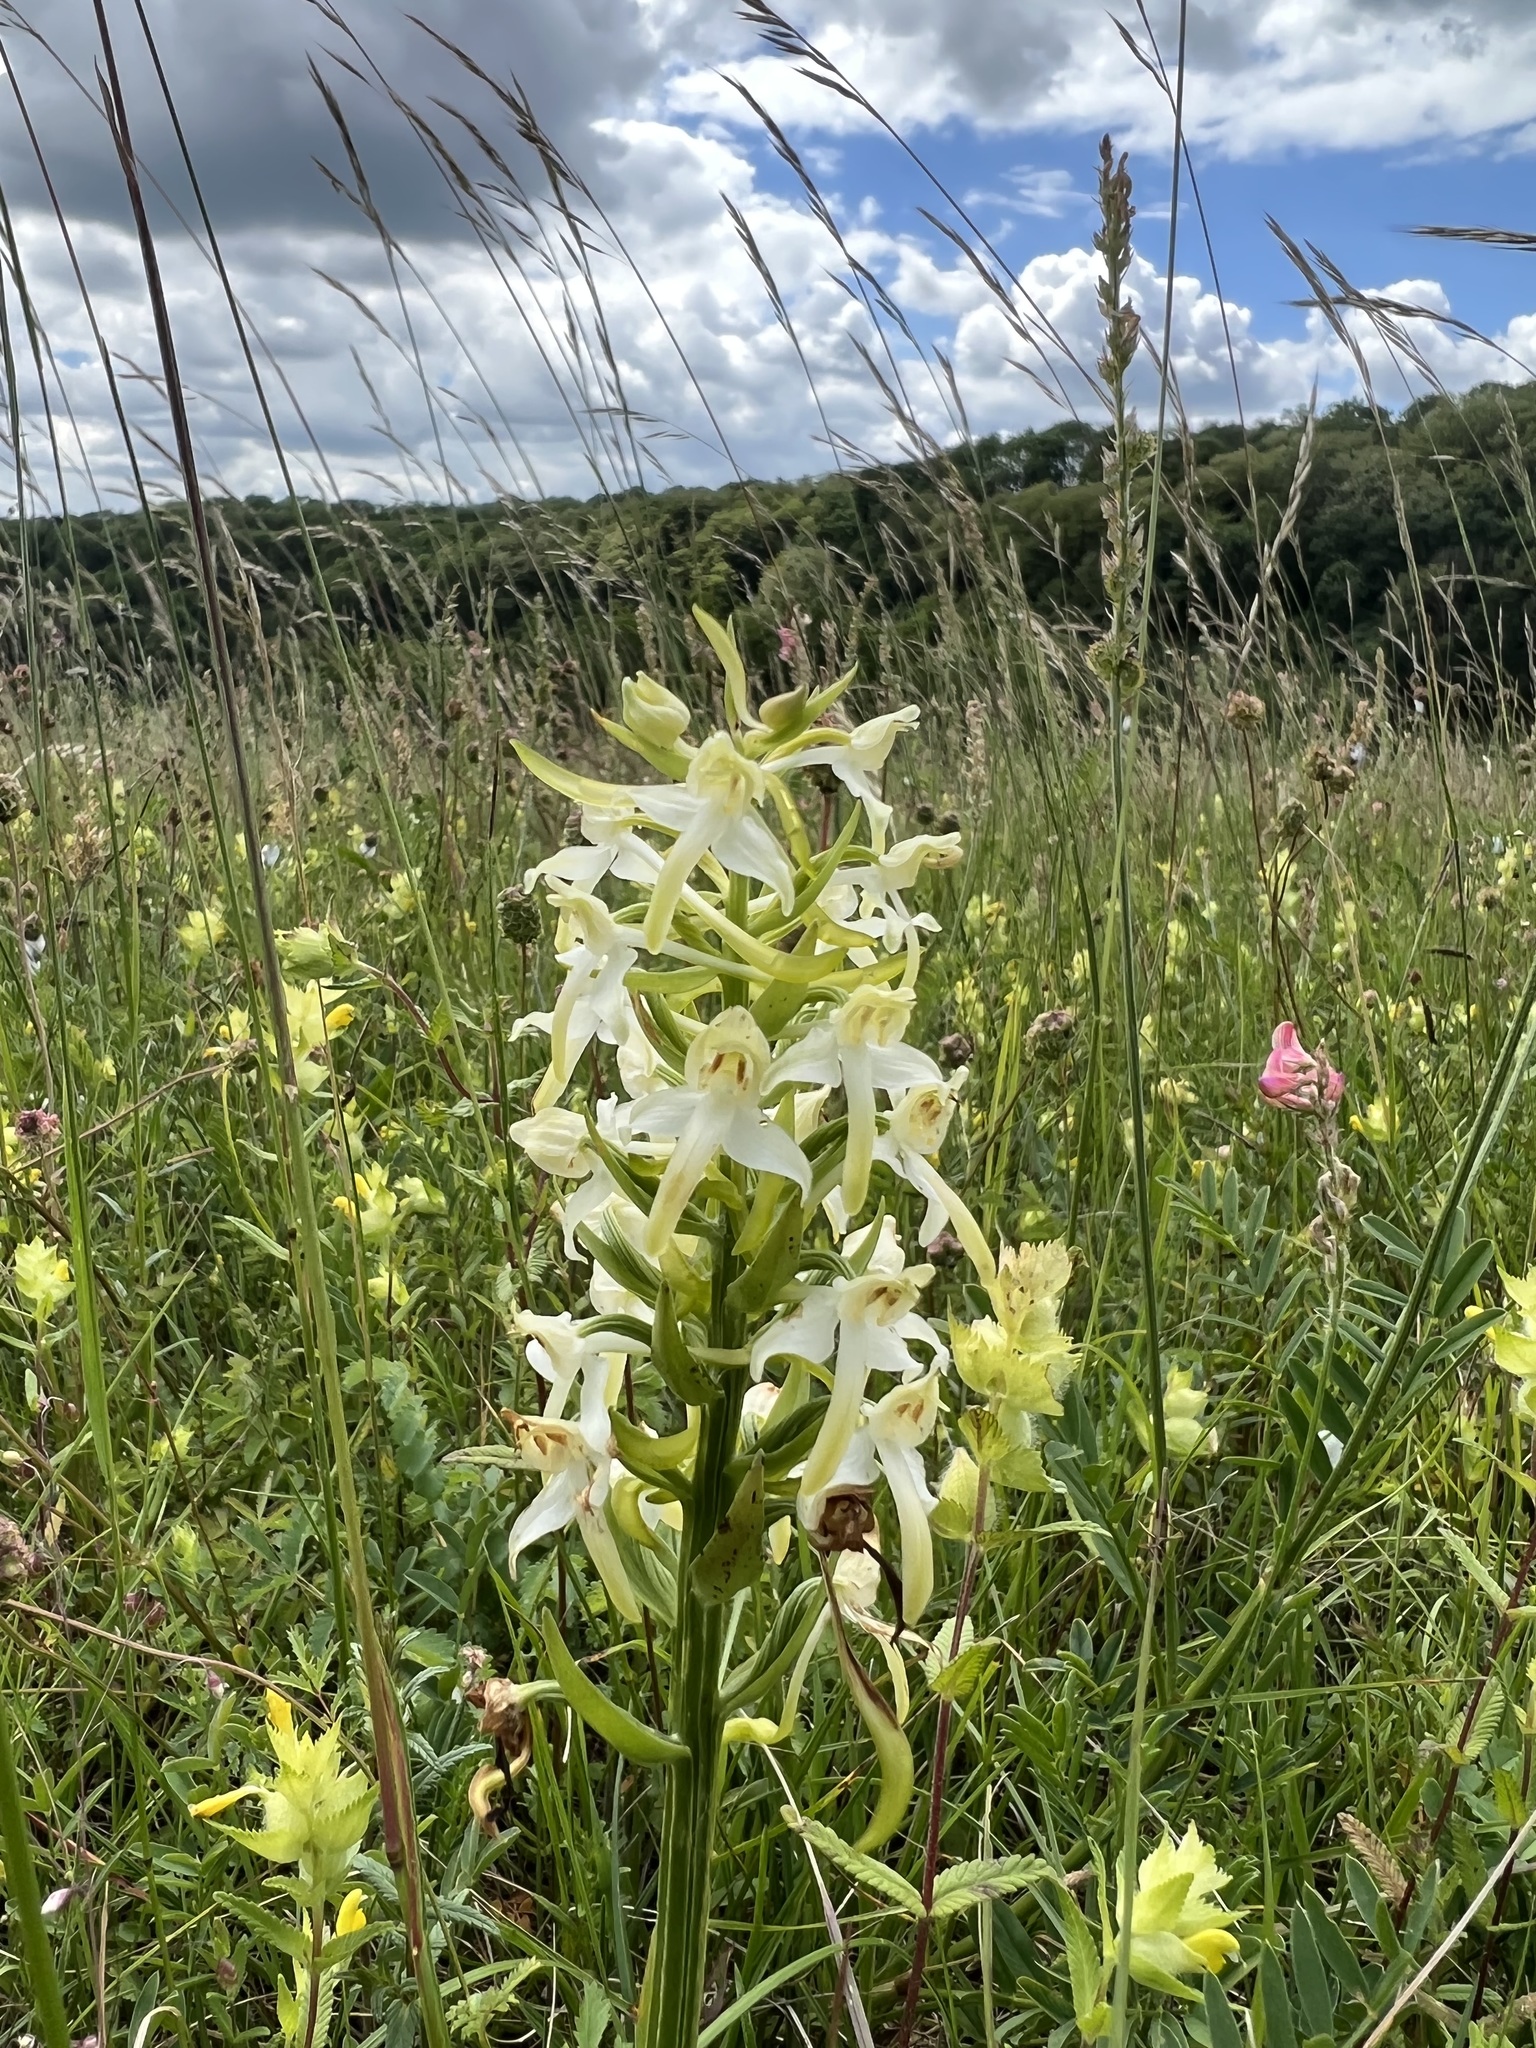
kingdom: Plantae
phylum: Tracheophyta
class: Liliopsida
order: Asparagales
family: Orchidaceae
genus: Platanthera
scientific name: Platanthera bifolia
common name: Lesser butterfly-orchid
